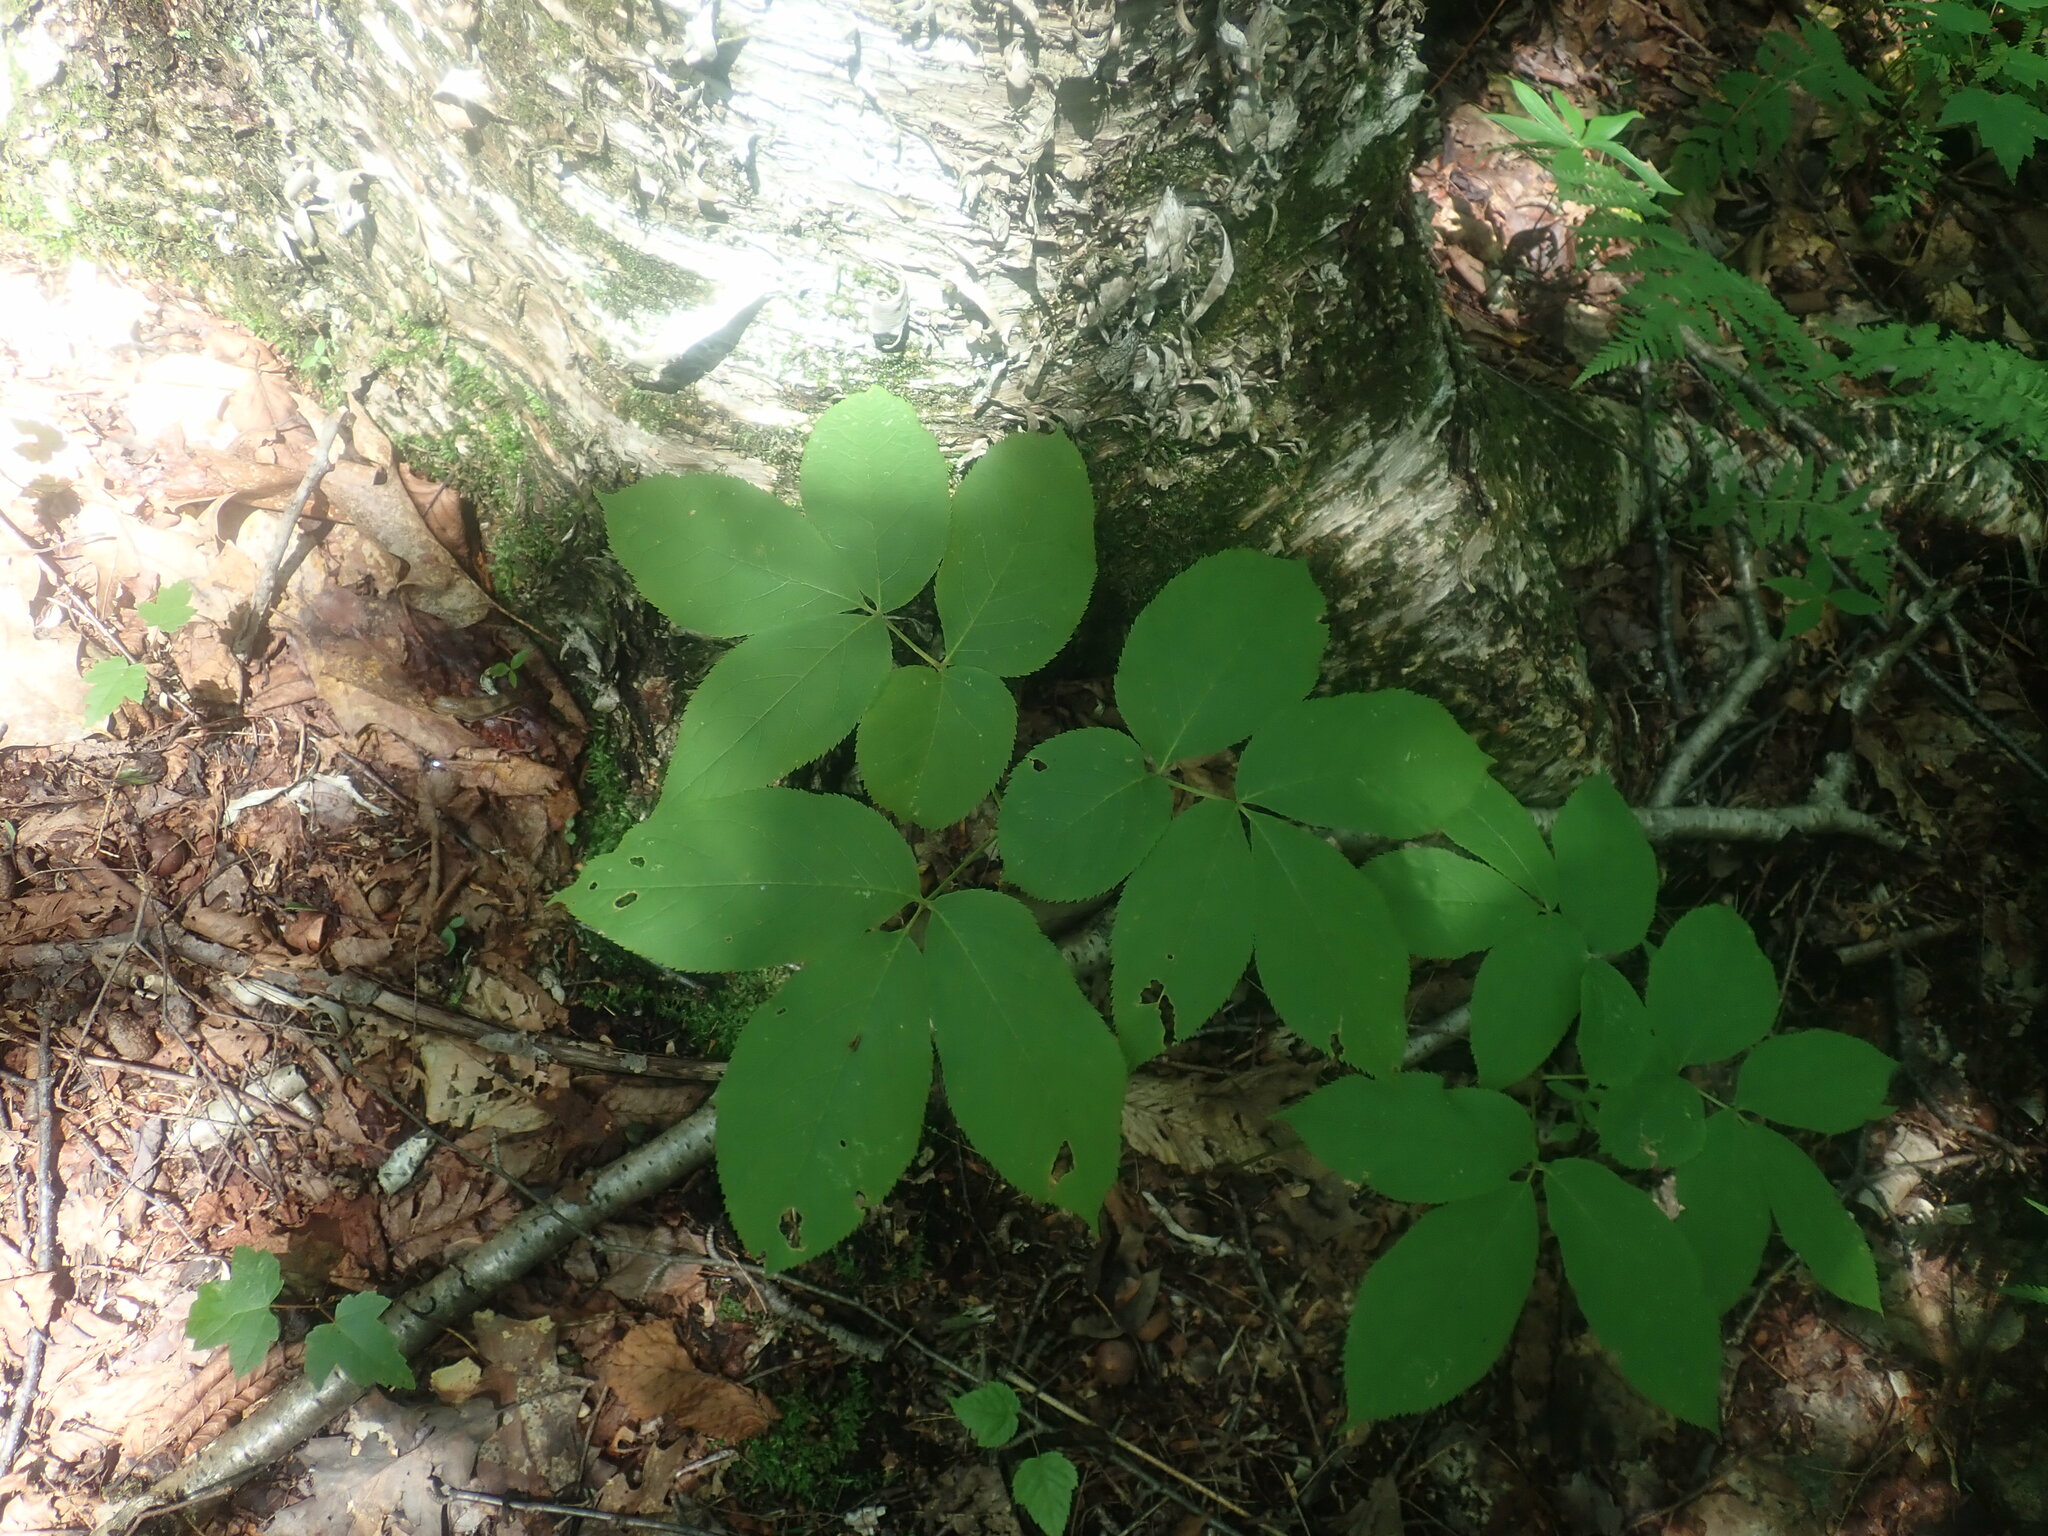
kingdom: Plantae
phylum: Tracheophyta
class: Magnoliopsida
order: Apiales
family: Araliaceae
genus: Aralia
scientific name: Aralia nudicaulis
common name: Wild sarsaparilla
